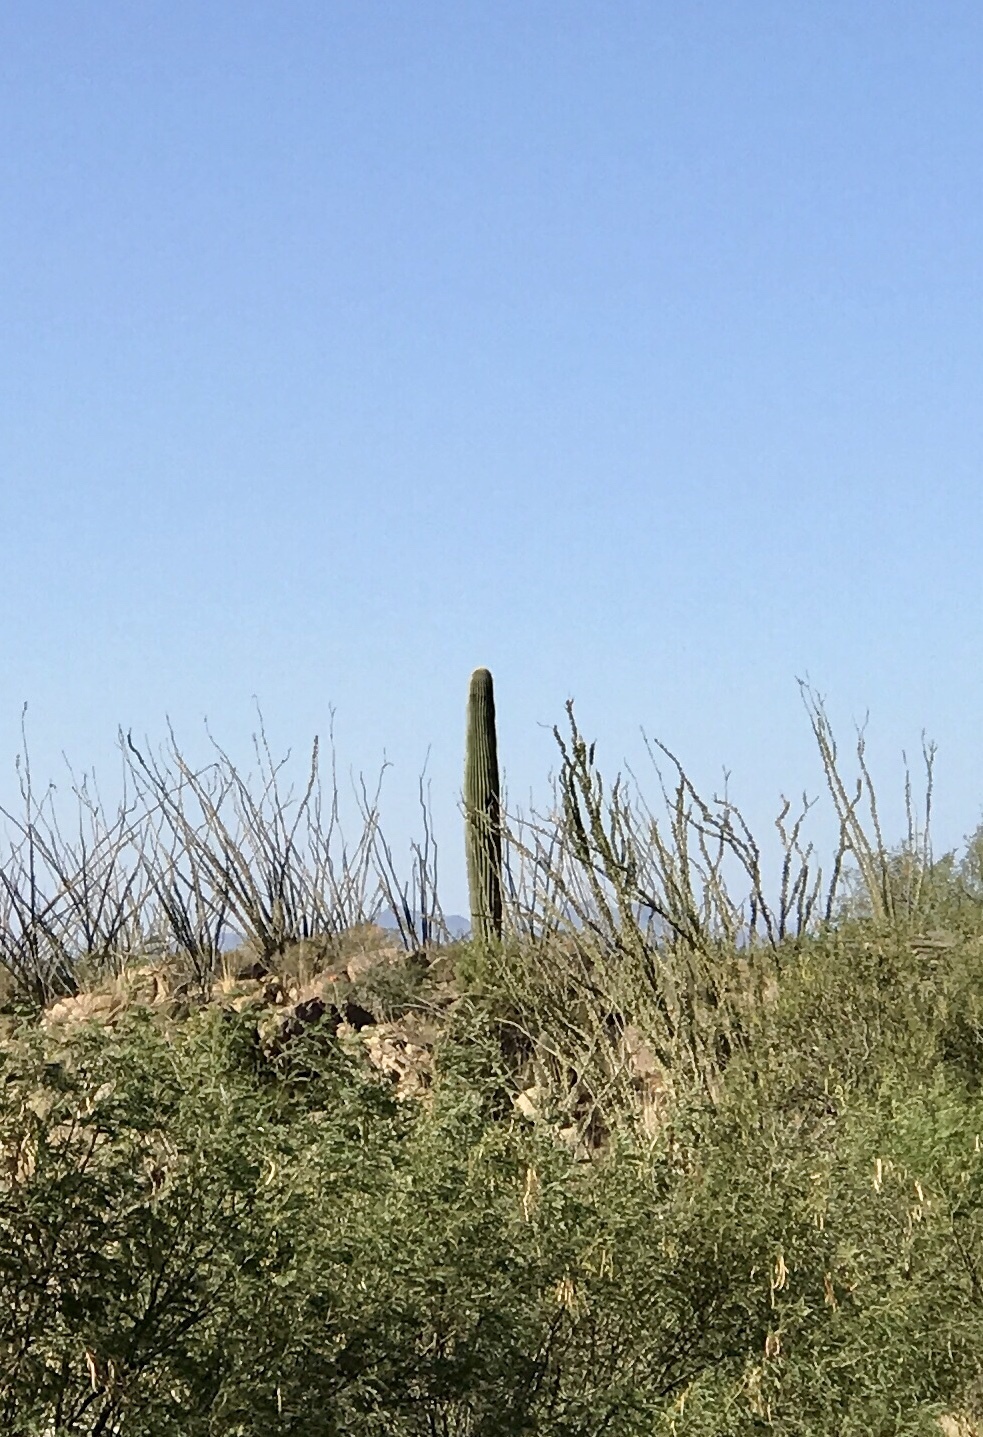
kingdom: Plantae
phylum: Tracheophyta
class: Magnoliopsida
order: Caryophyllales
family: Cactaceae
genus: Carnegiea
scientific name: Carnegiea gigantea
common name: Saguaro
